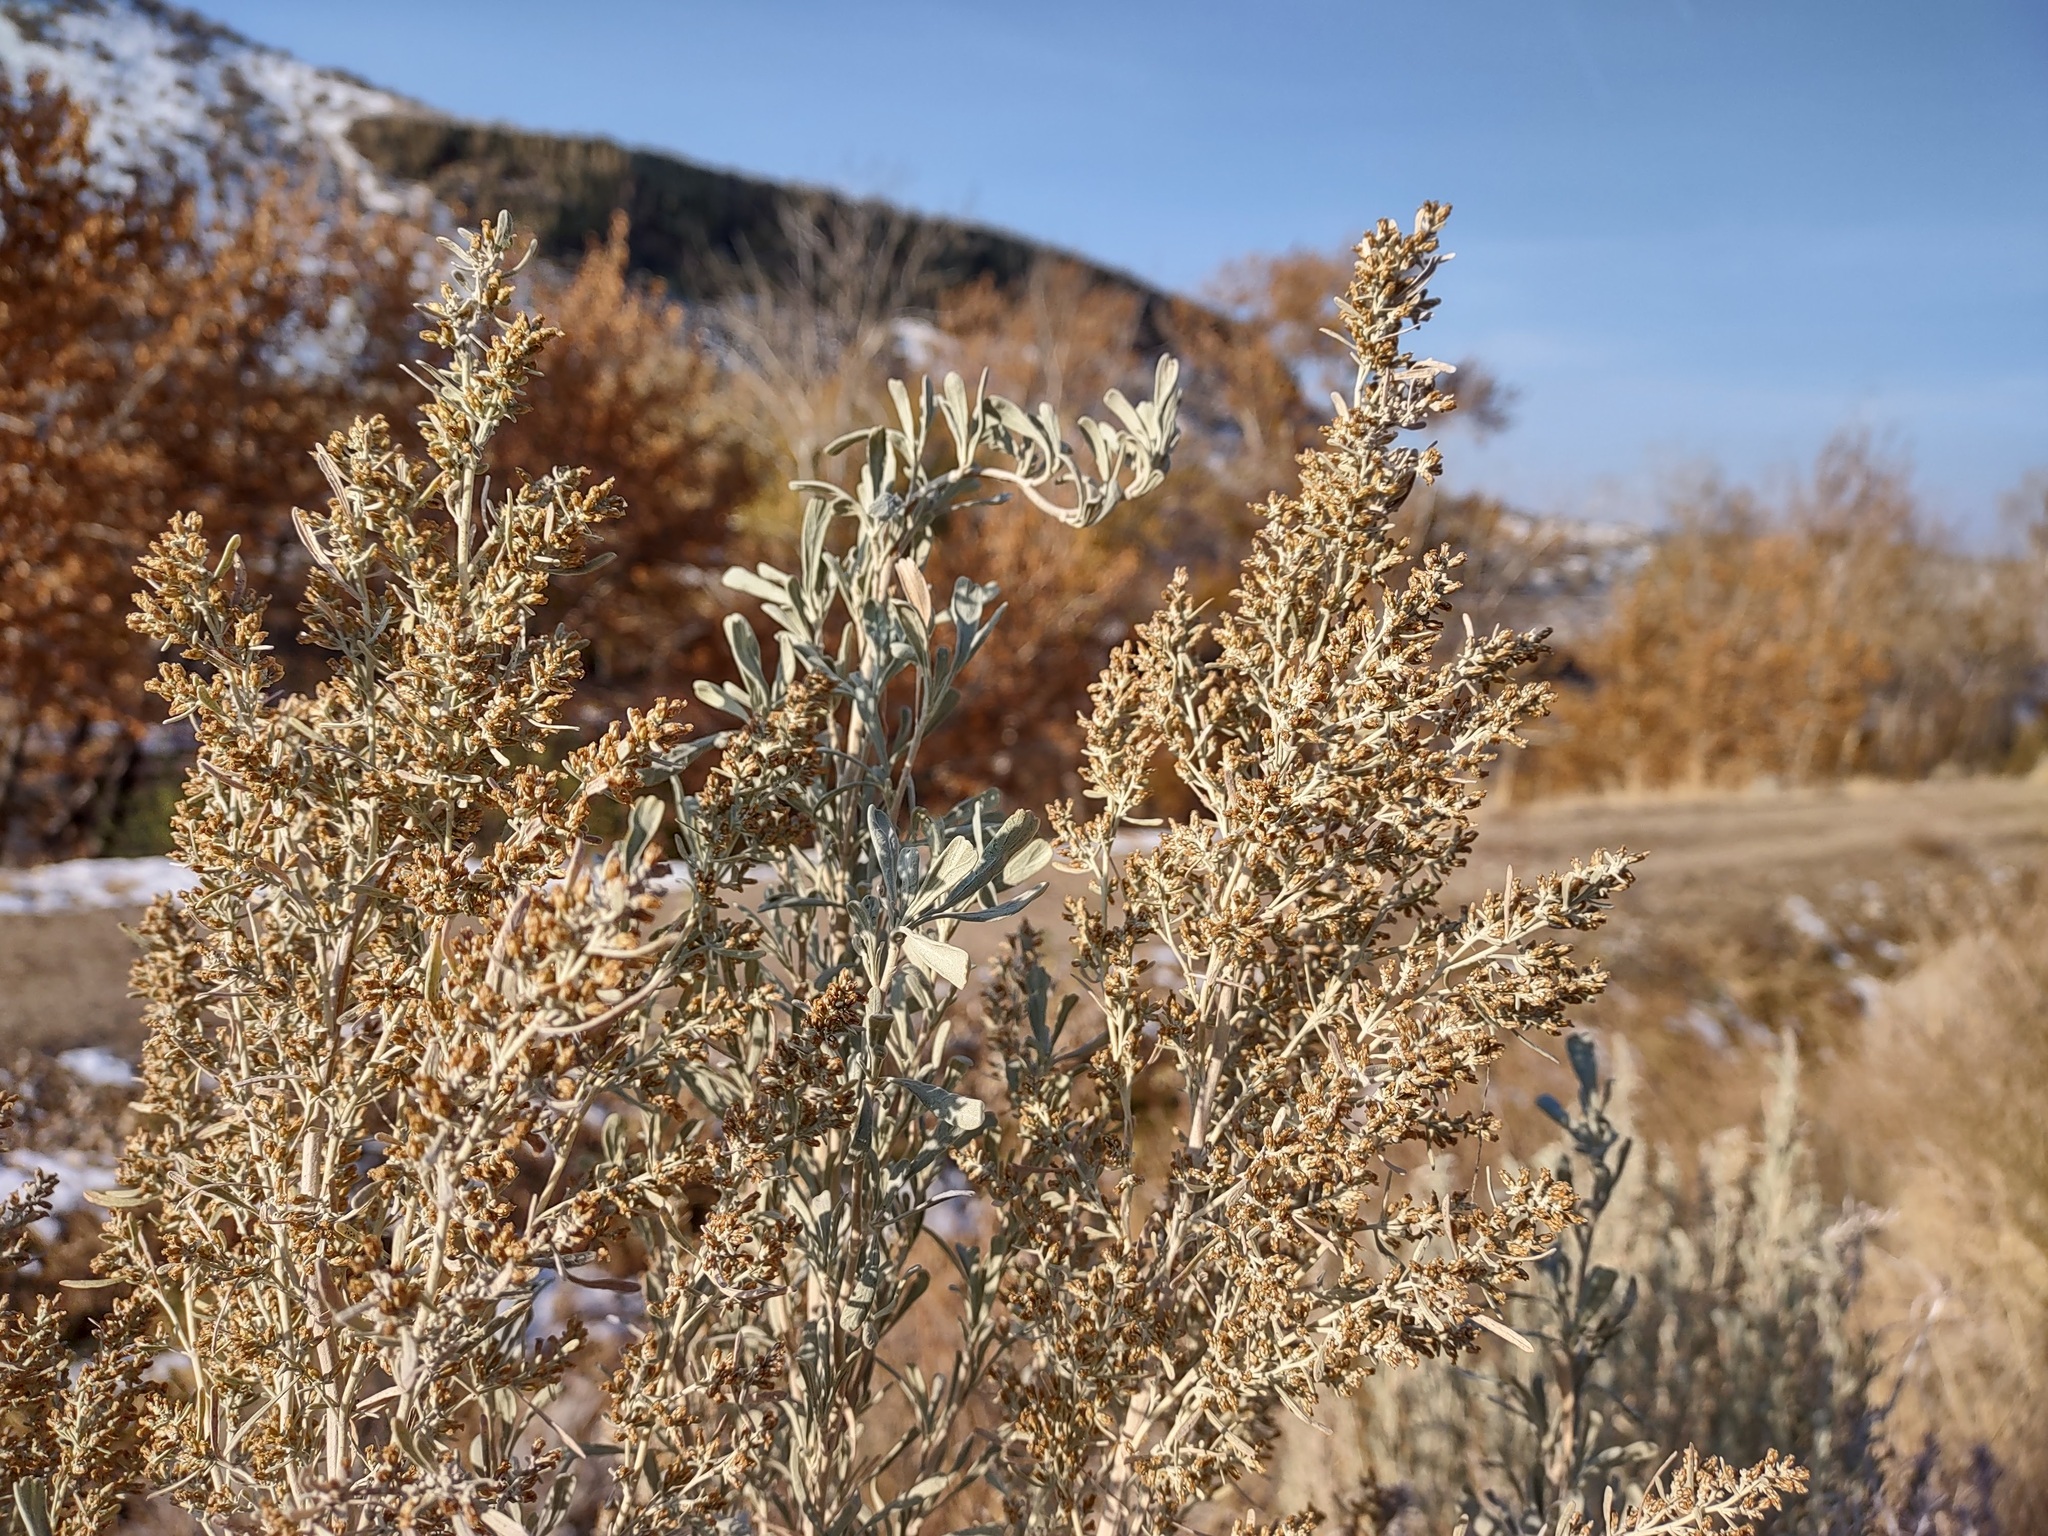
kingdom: Plantae
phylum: Tracheophyta
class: Magnoliopsida
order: Asterales
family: Asteraceae
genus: Artemisia
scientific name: Artemisia tridentata
